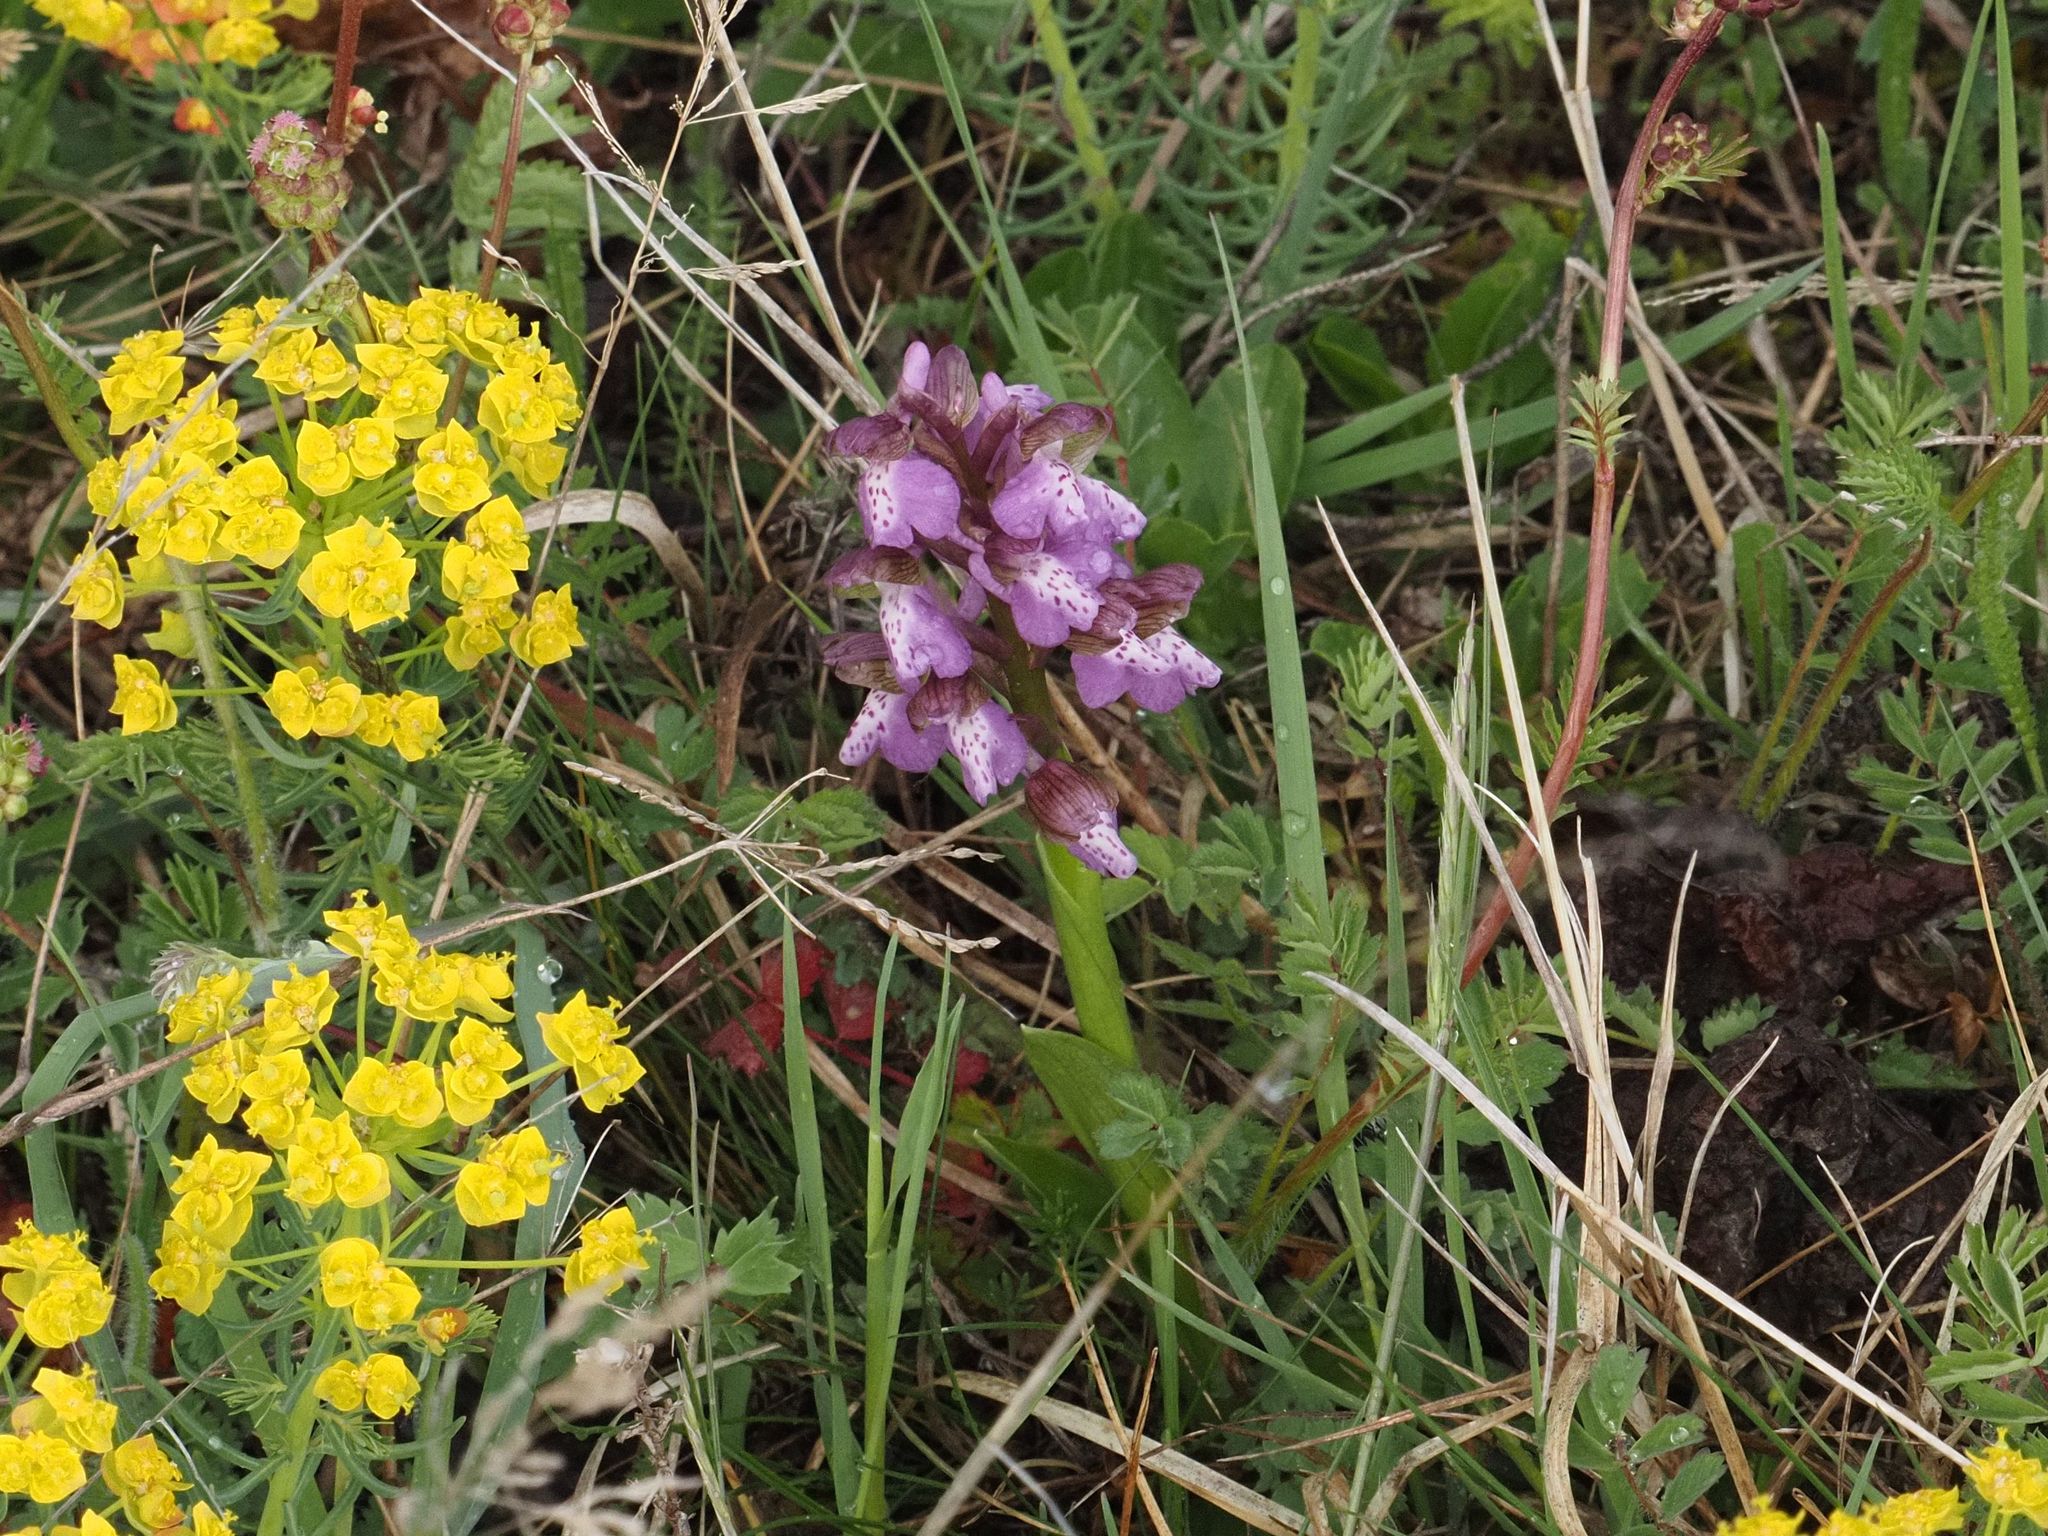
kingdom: Plantae
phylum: Tracheophyta
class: Liliopsida
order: Asparagales
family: Orchidaceae
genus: Anacamptis
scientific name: Anacamptis morio
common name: Green-winged orchid
